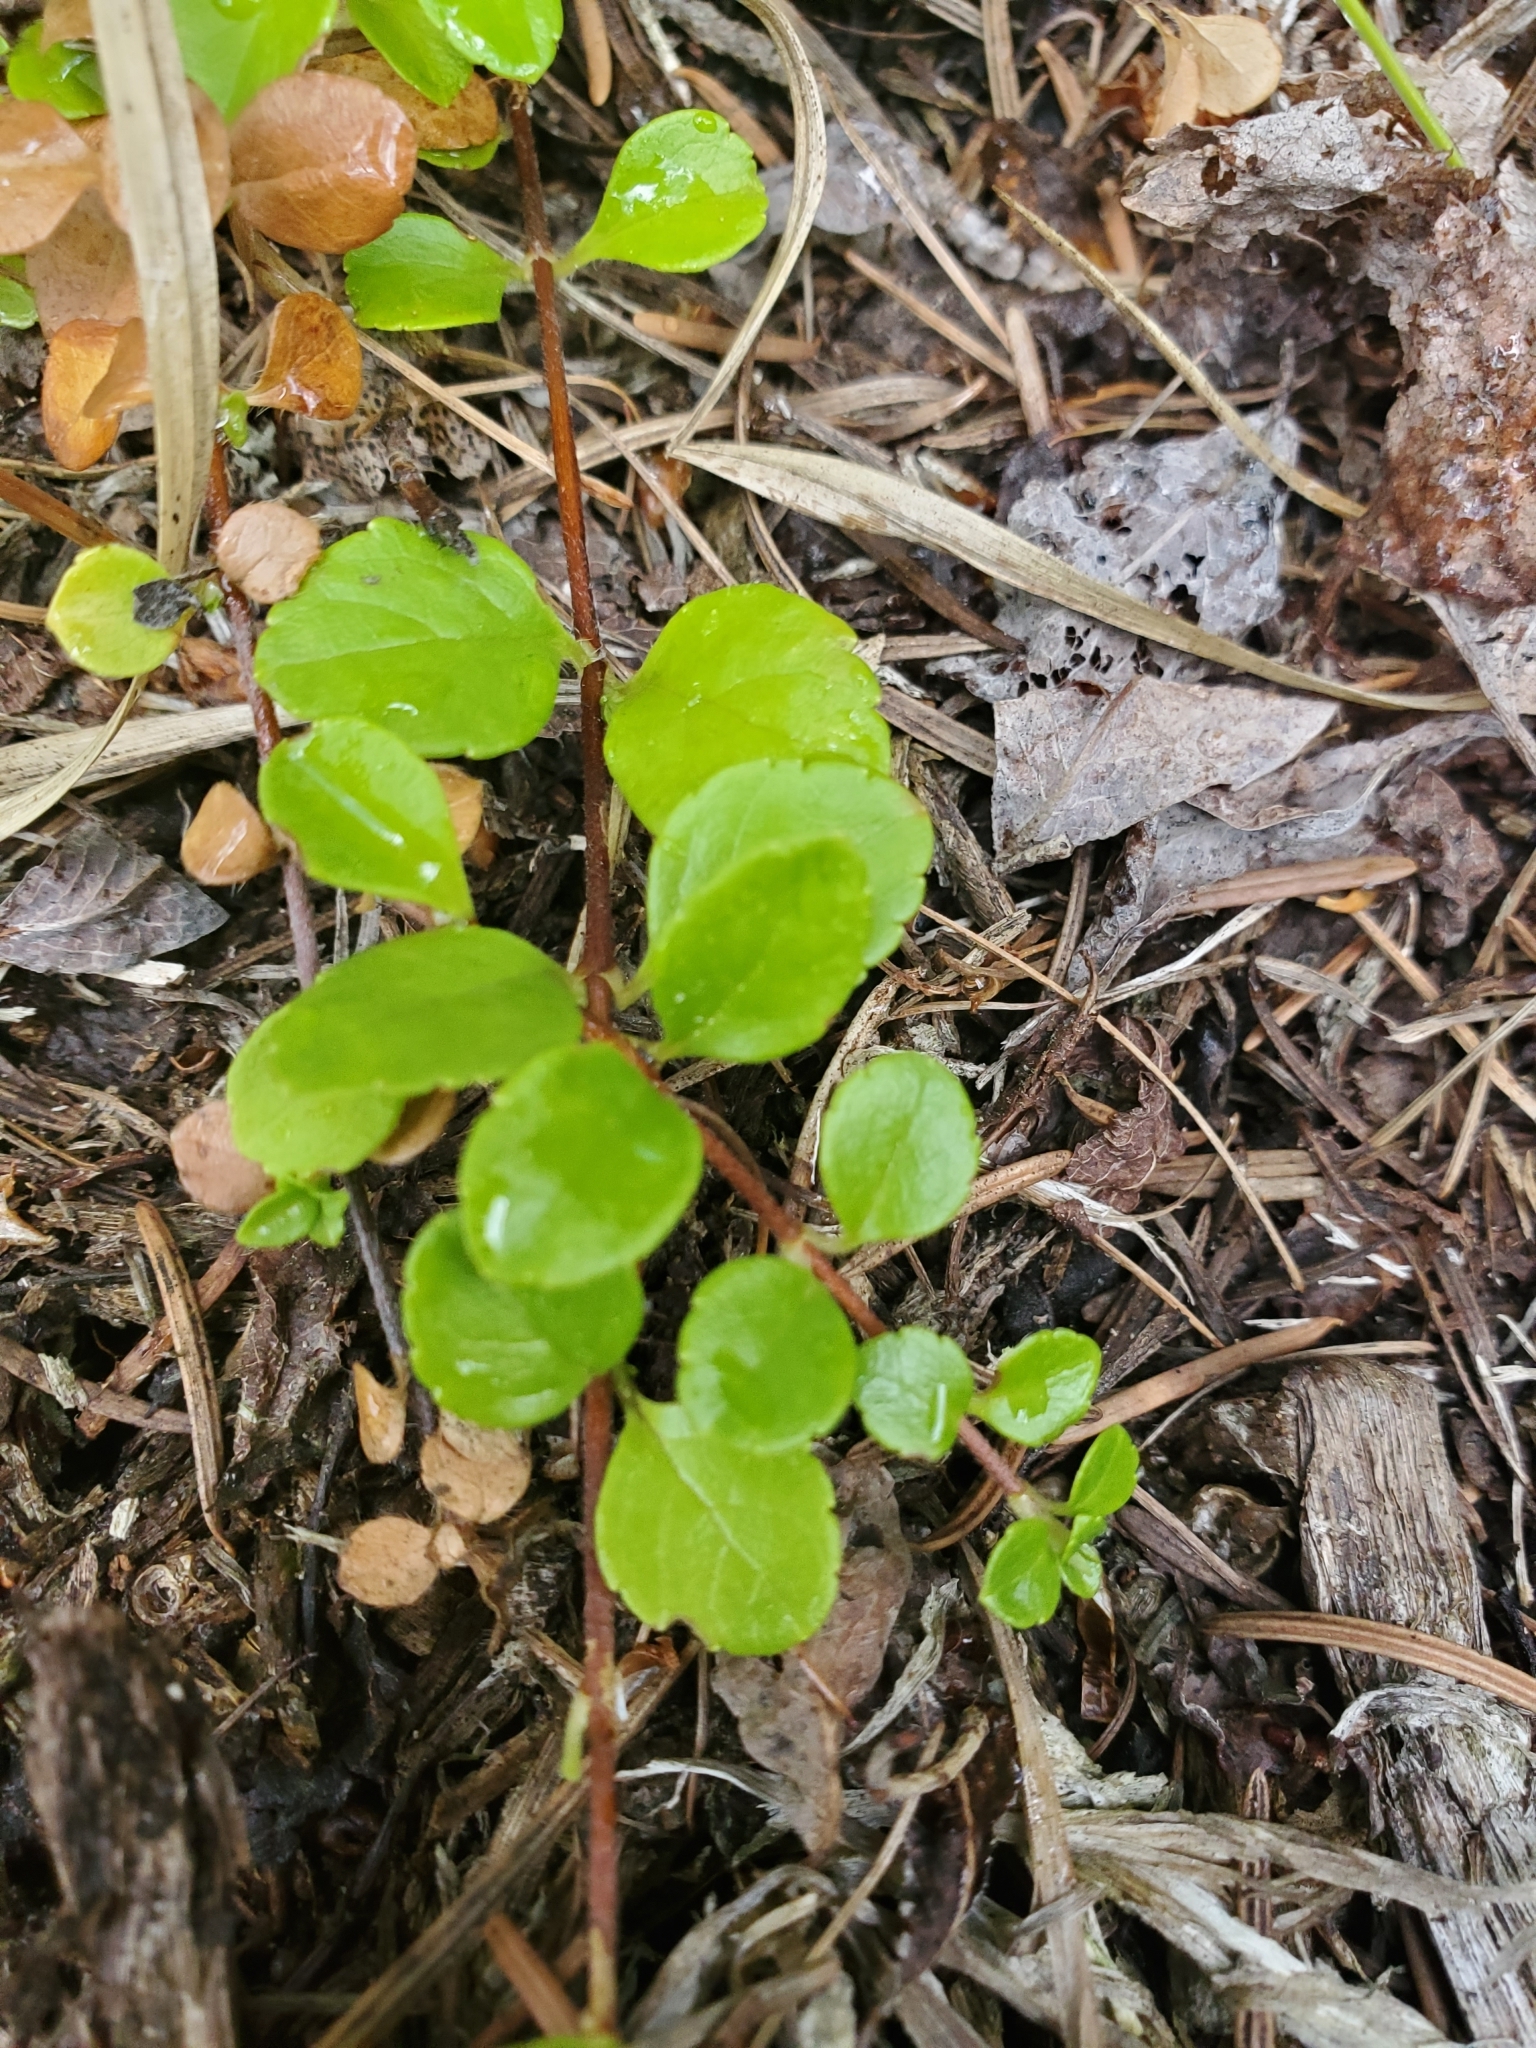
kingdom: Plantae
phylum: Tracheophyta
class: Magnoliopsida
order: Dipsacales
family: Caprifoliaceae
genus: Linnaea
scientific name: Linnaea borealis
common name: Twinflower
